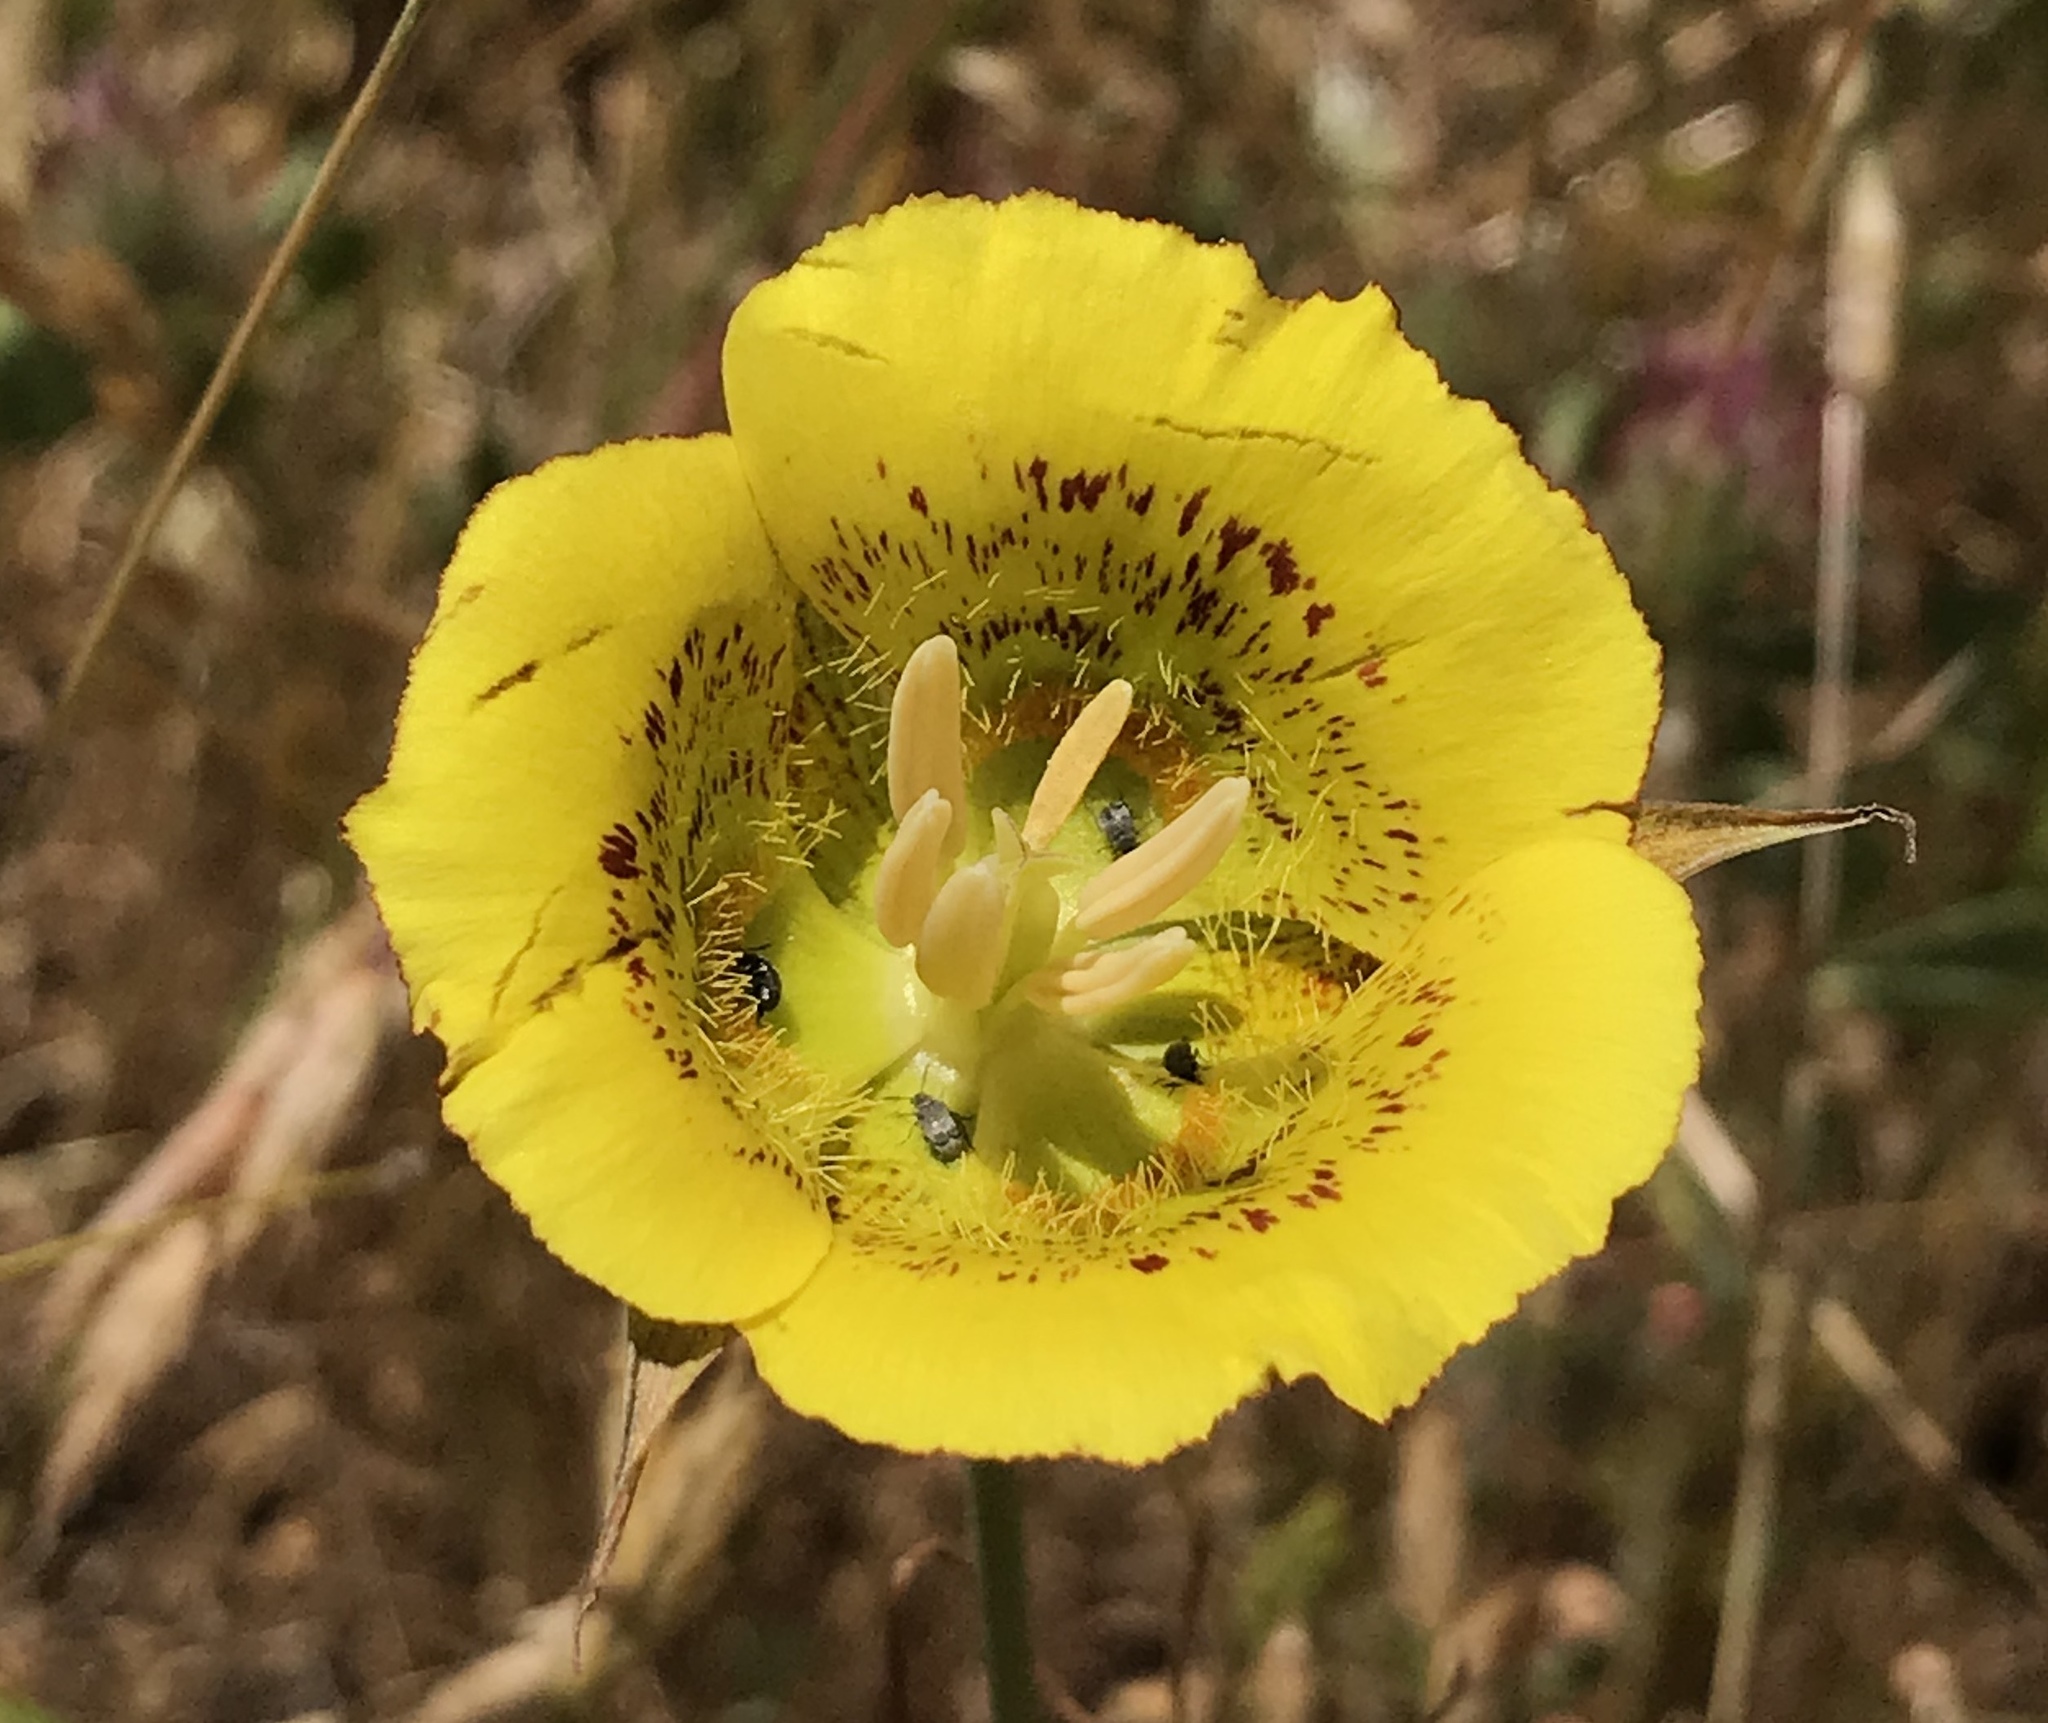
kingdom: Plantae
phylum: Tracheophyta
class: Liliopsida
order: Liliales
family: Liliaceae
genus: Calochortus
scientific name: Calochortus luteus
